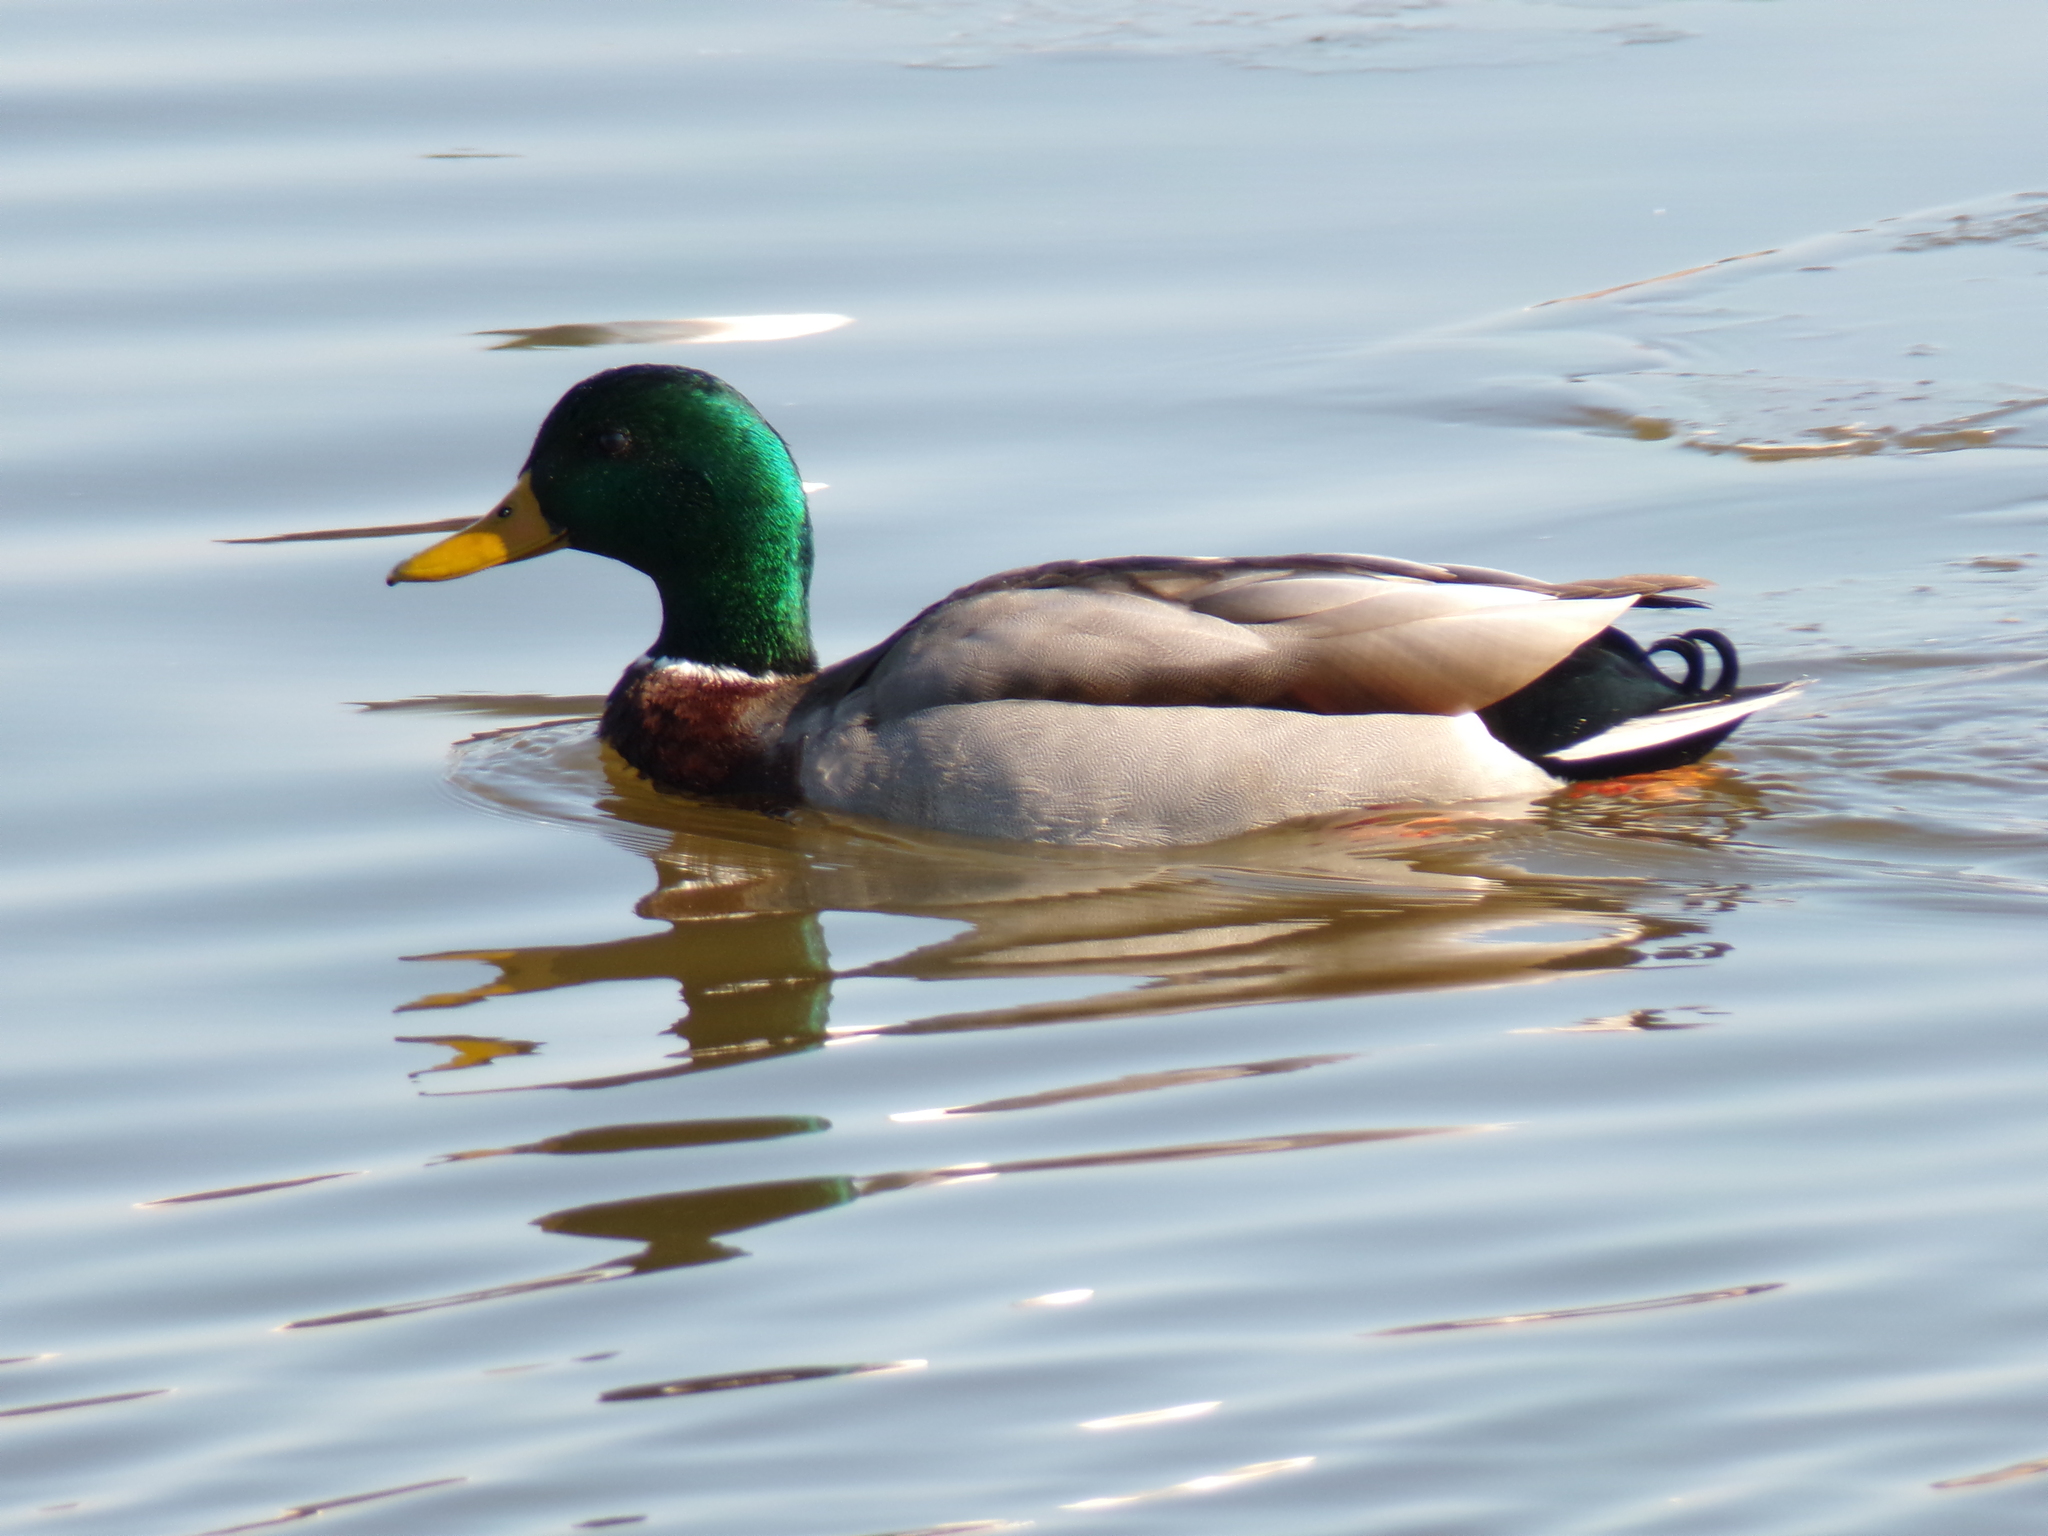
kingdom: Animalia
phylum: Chordata
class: Aves
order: Anseriformes
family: Anatidae
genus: Anas
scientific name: Anas platyrhynchos
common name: Mallard
